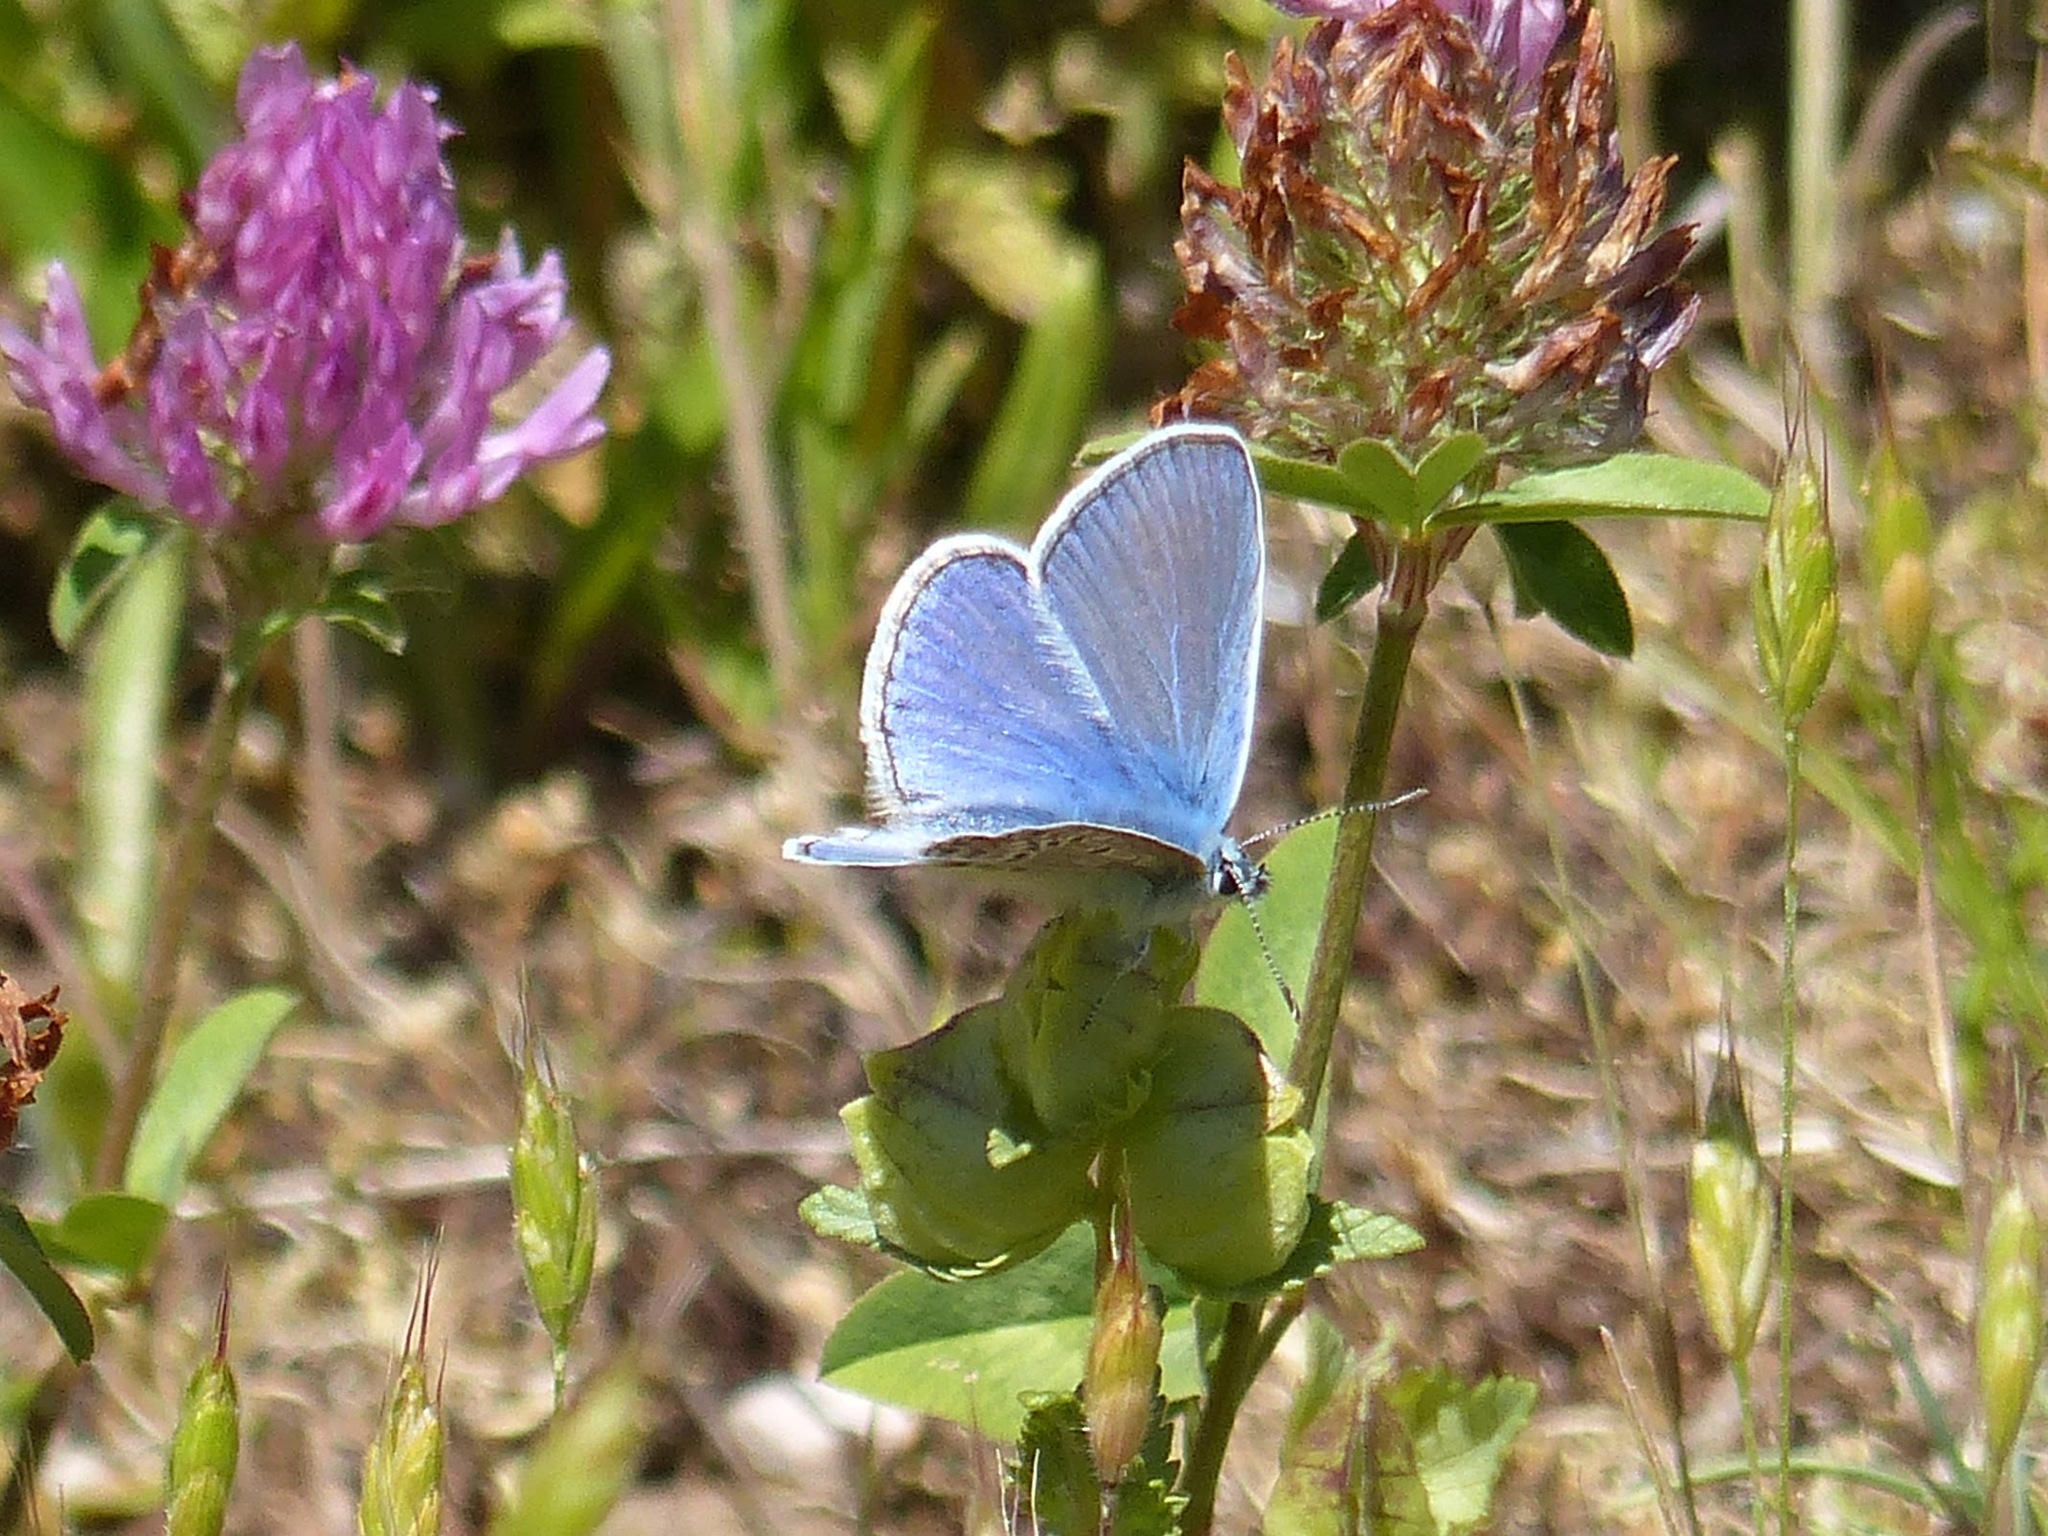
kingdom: Animalia
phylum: Arthropoda
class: Insecta
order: Lepidoptera
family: Lycaenidae
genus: Polyommatus
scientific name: Polyommatus icarus
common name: Common blue
